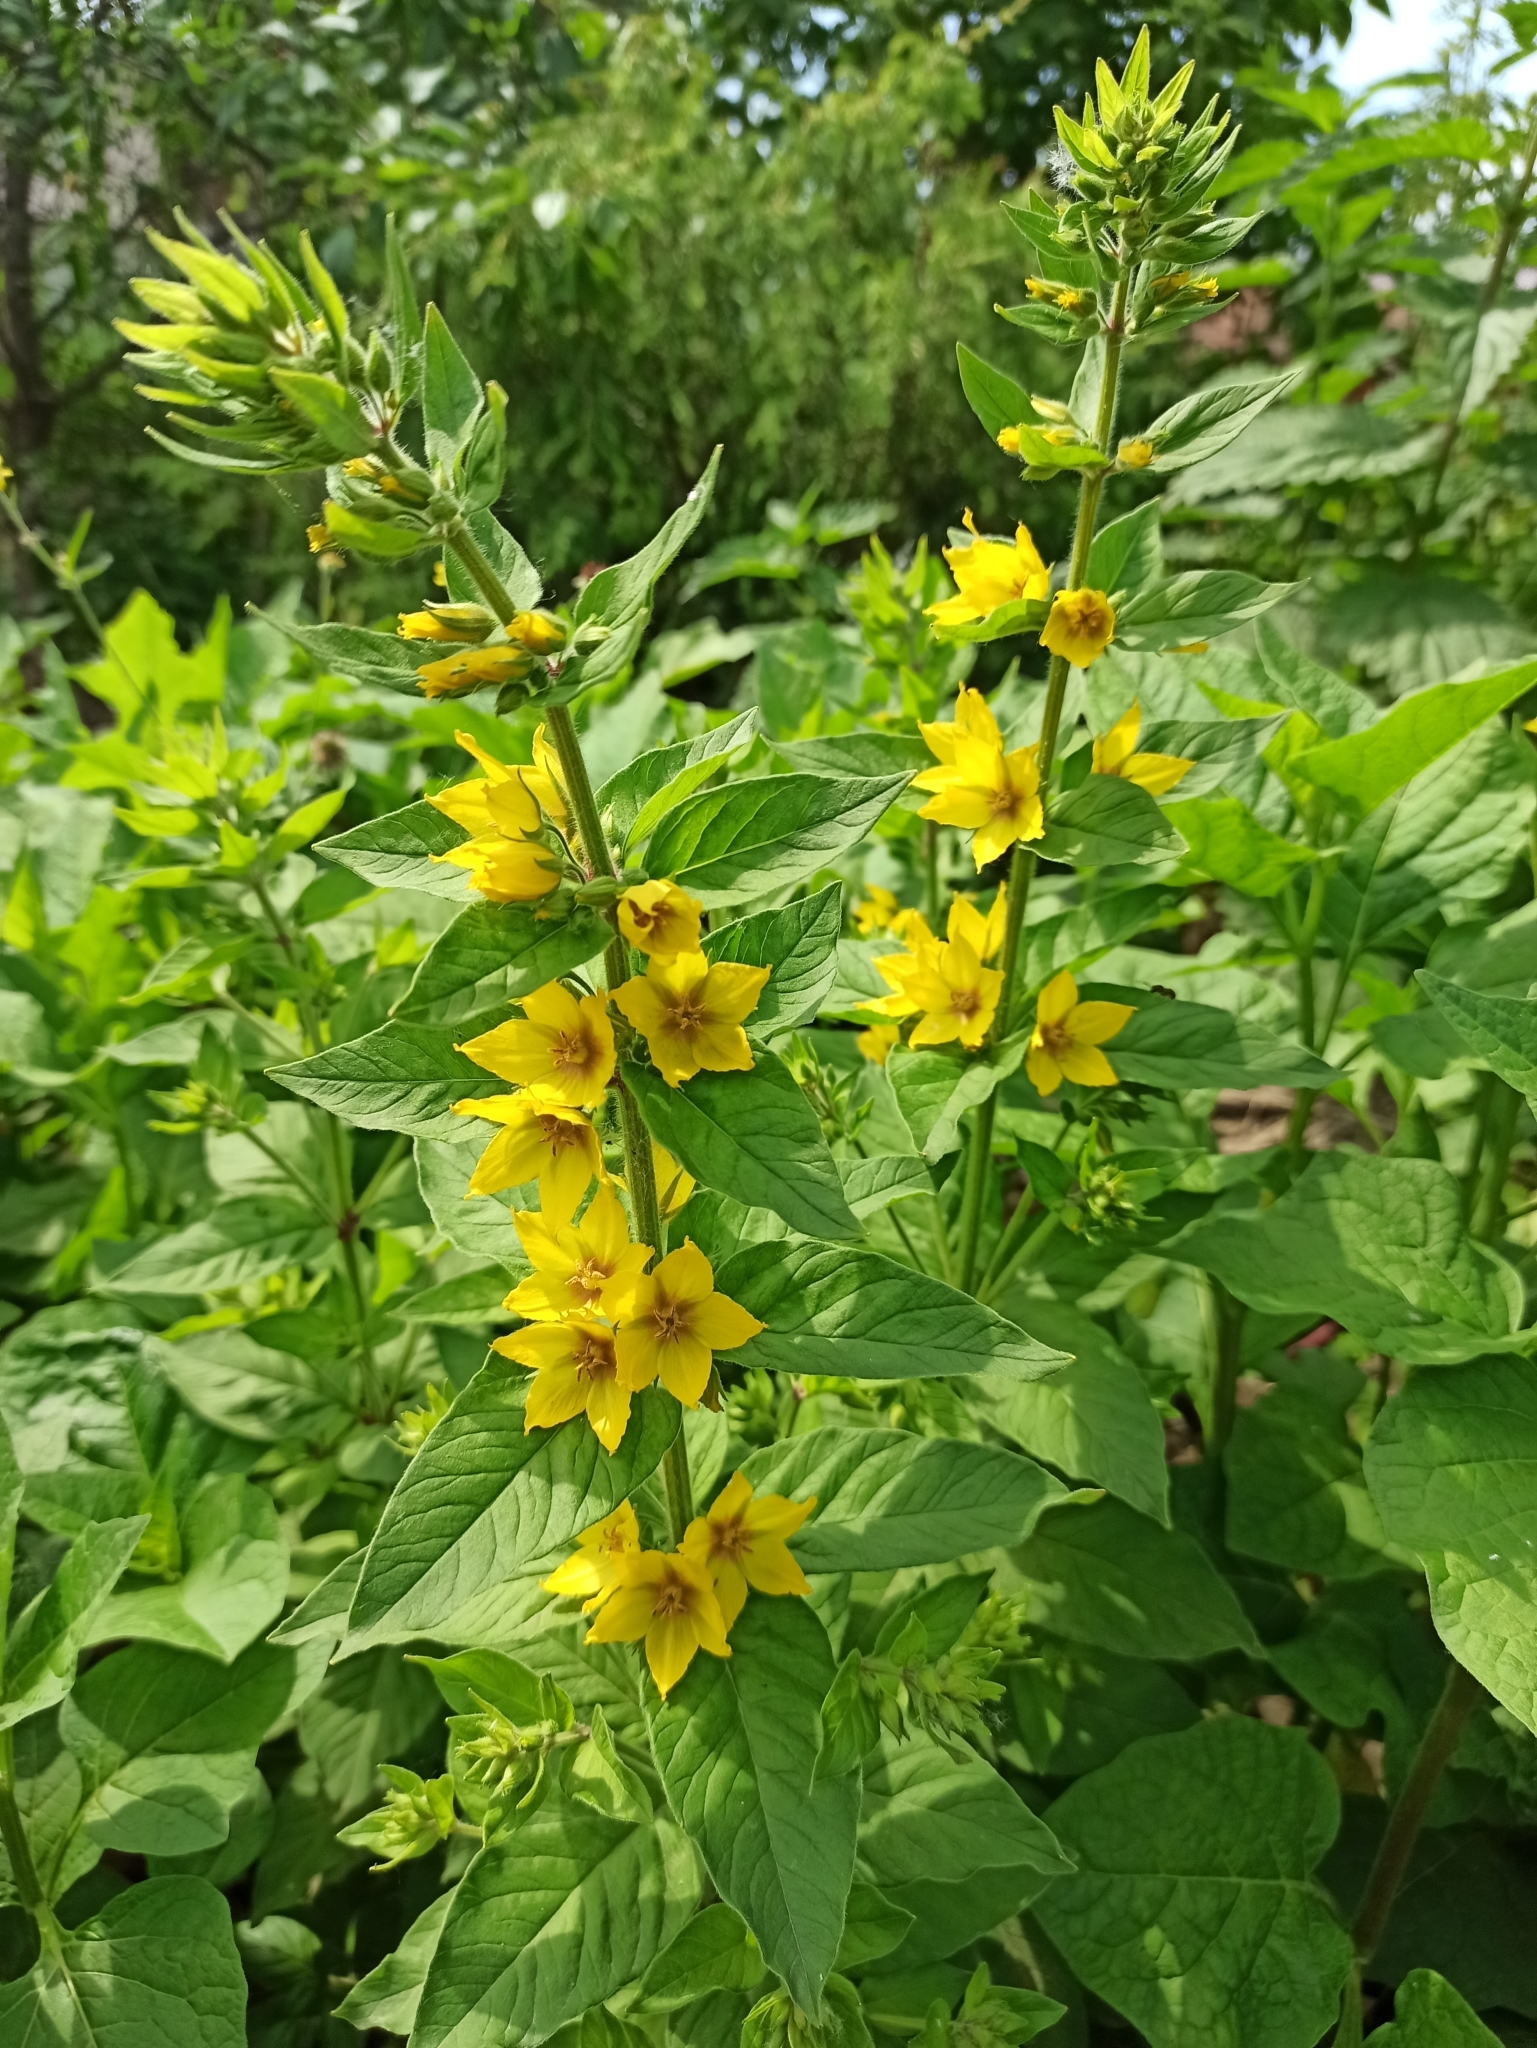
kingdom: Plantae
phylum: Tracheophyta
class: Magnoliopsida
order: Ericales
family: Primulaceae
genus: Lysimachia
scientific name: Lysimachia punctata
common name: Dotted loosestrife
